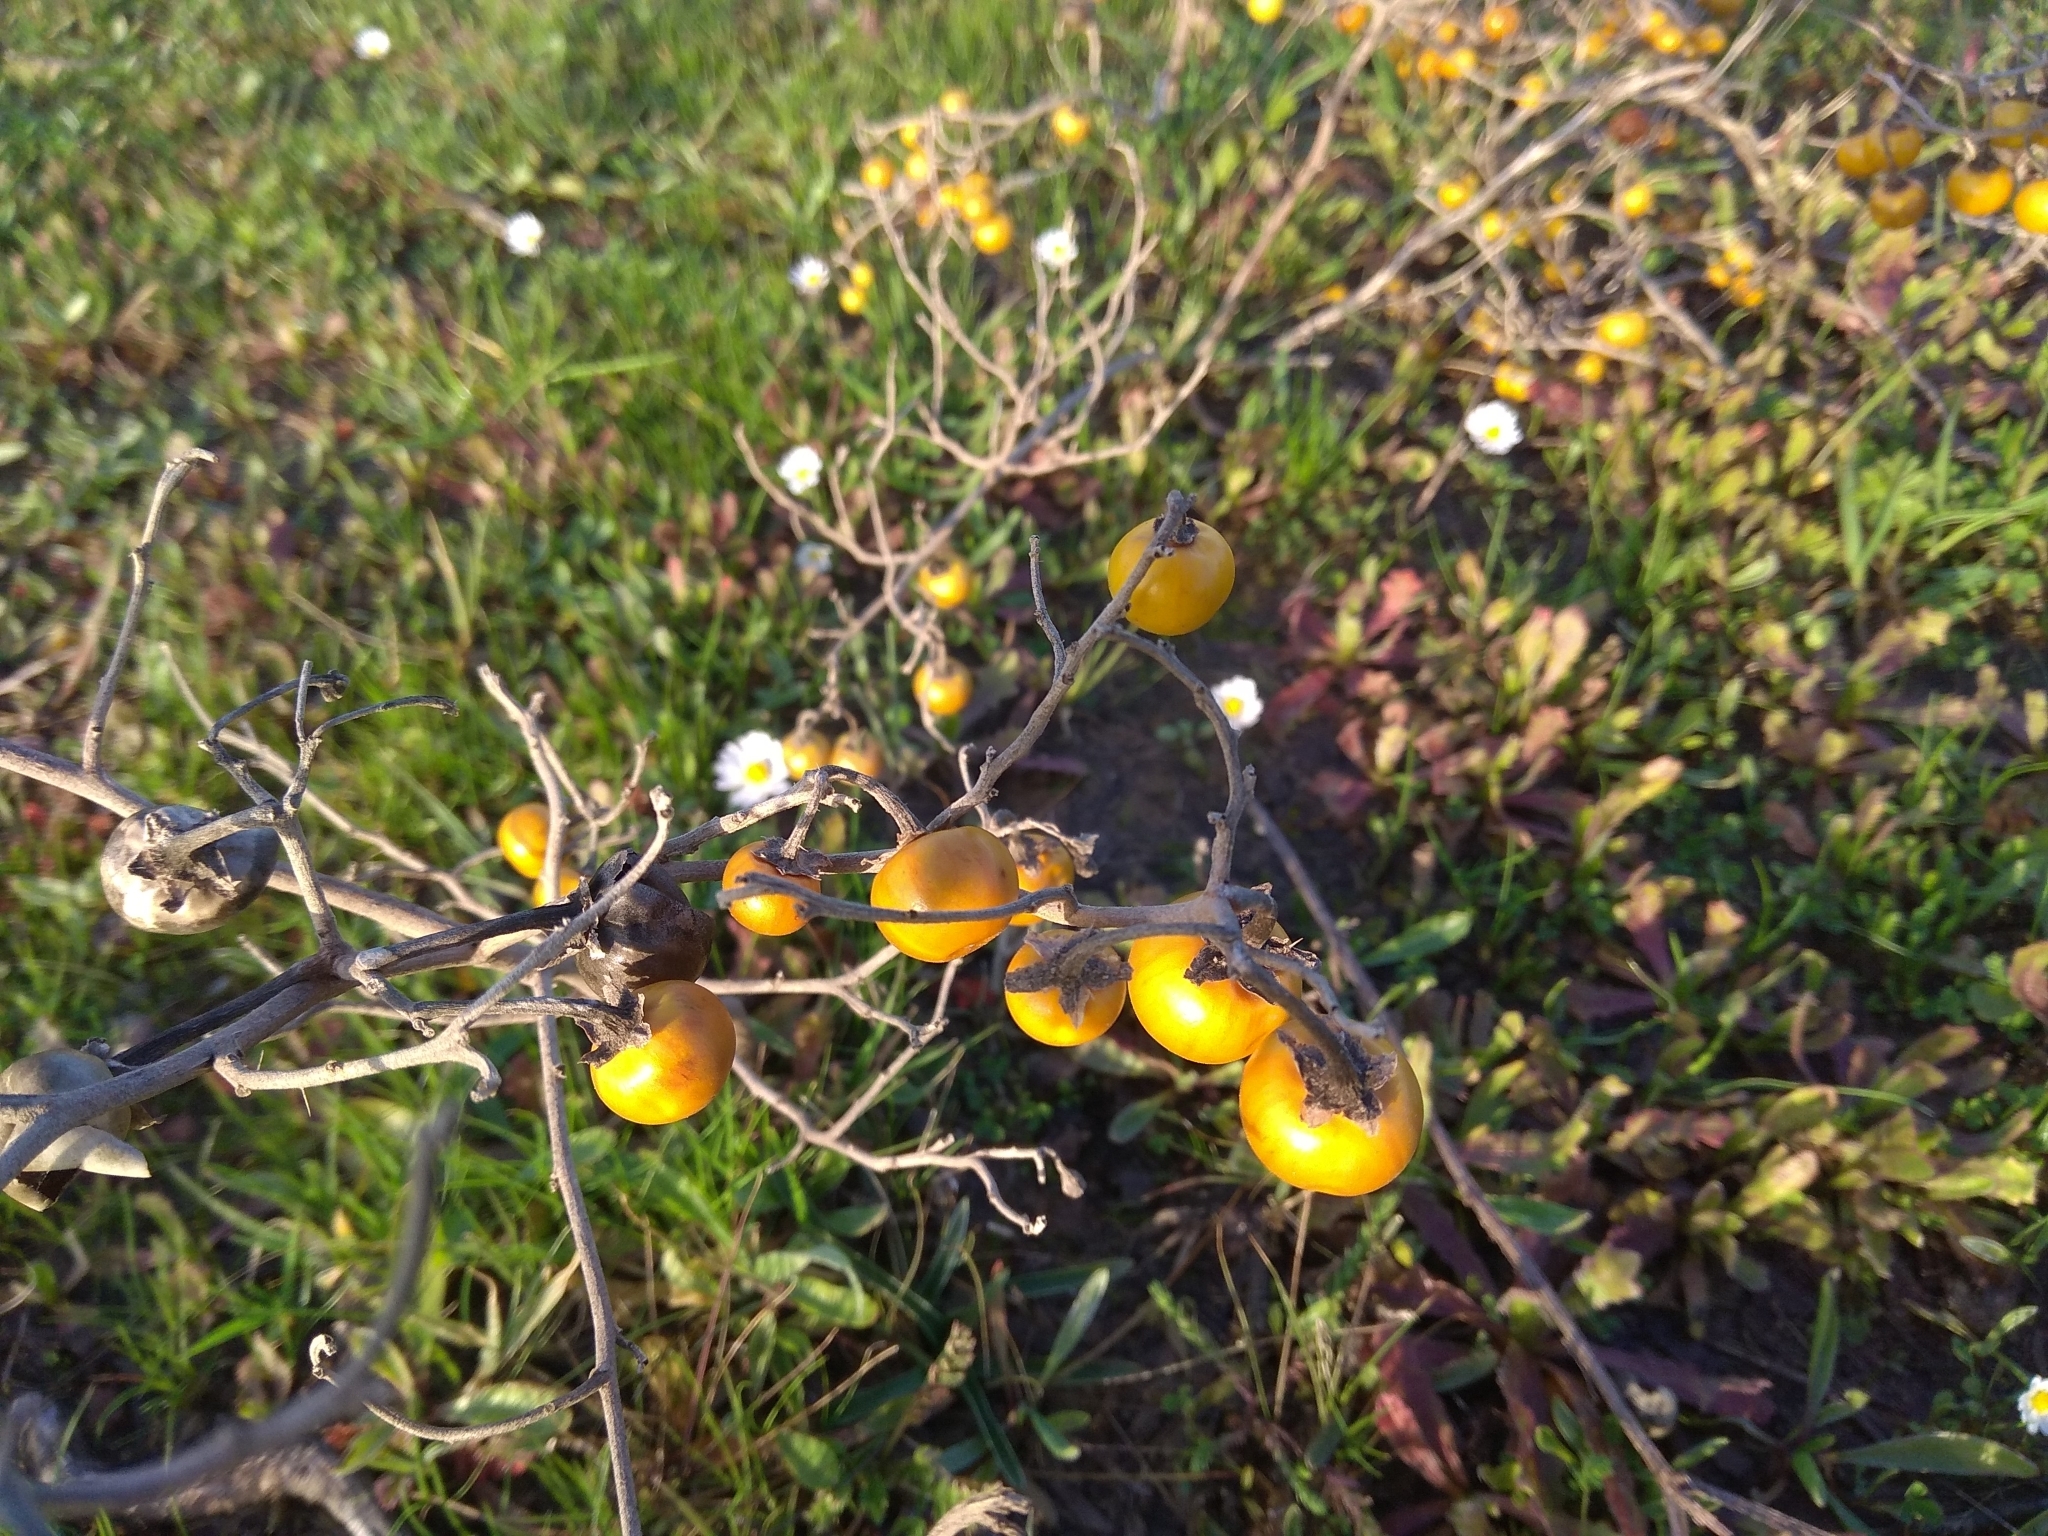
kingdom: Plantae
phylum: Tracheophyta
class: Magnoliopsida
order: Solanales
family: Solanaceae
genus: Solanum
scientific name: Solanum elaeagnifolium
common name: Silverleaf nightshade
